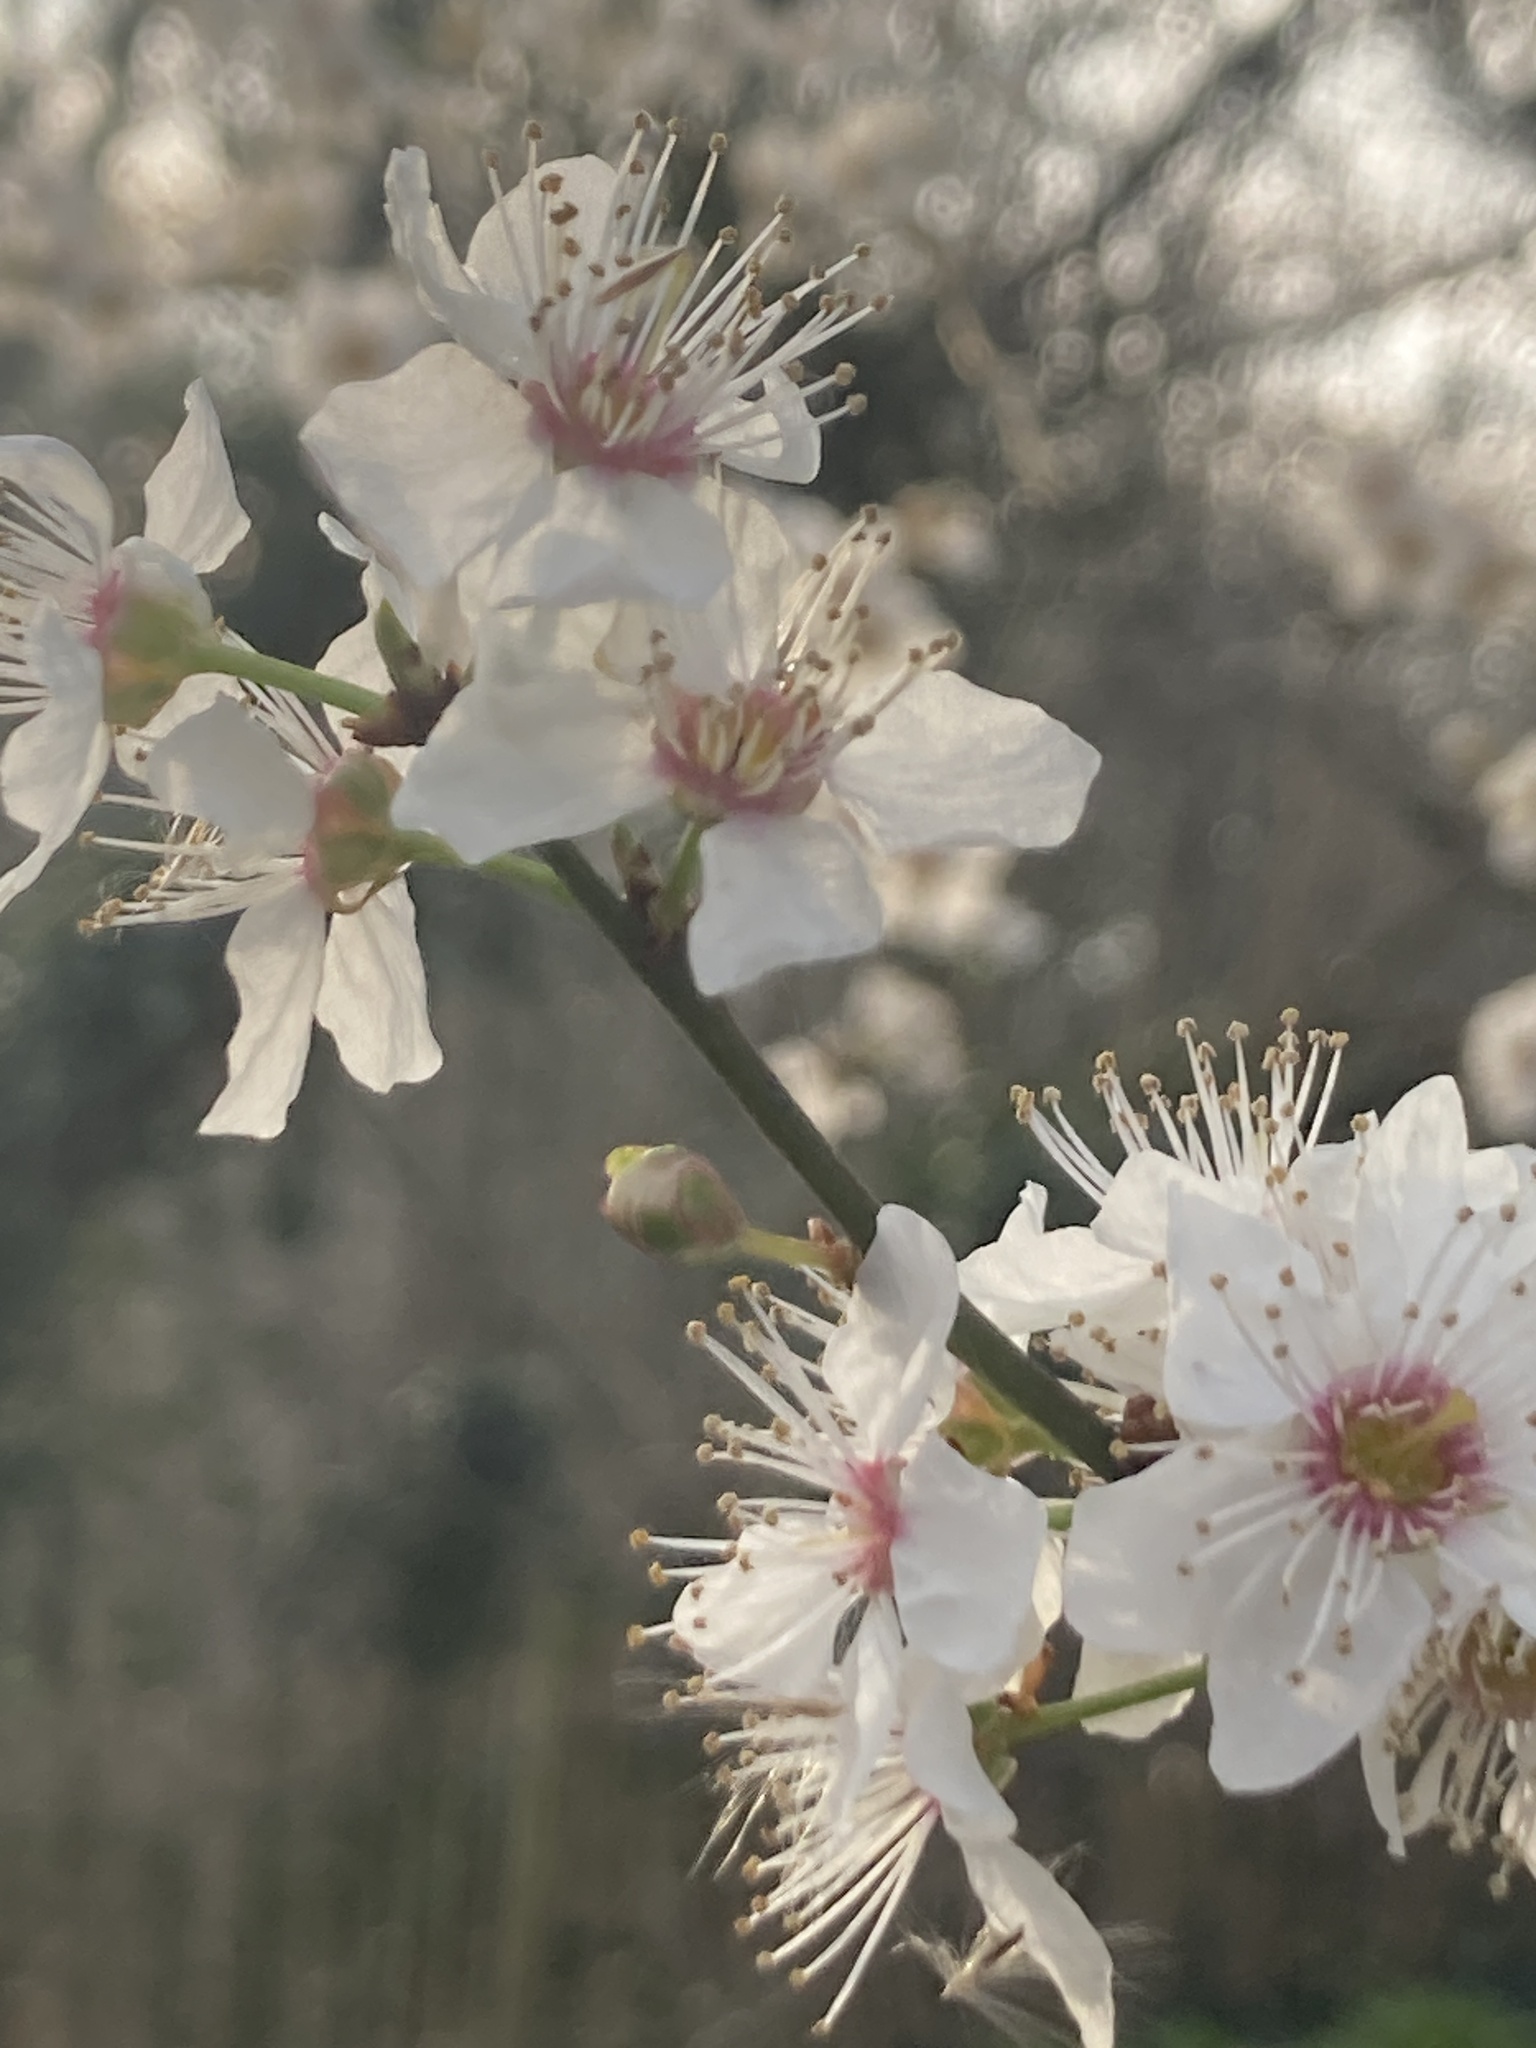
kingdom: Plantae
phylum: Tracheophyta
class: Magnoliopsida
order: Rosales
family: Rosaceae
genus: Prunus
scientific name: Prunus cerasifera
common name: Cherry plum
